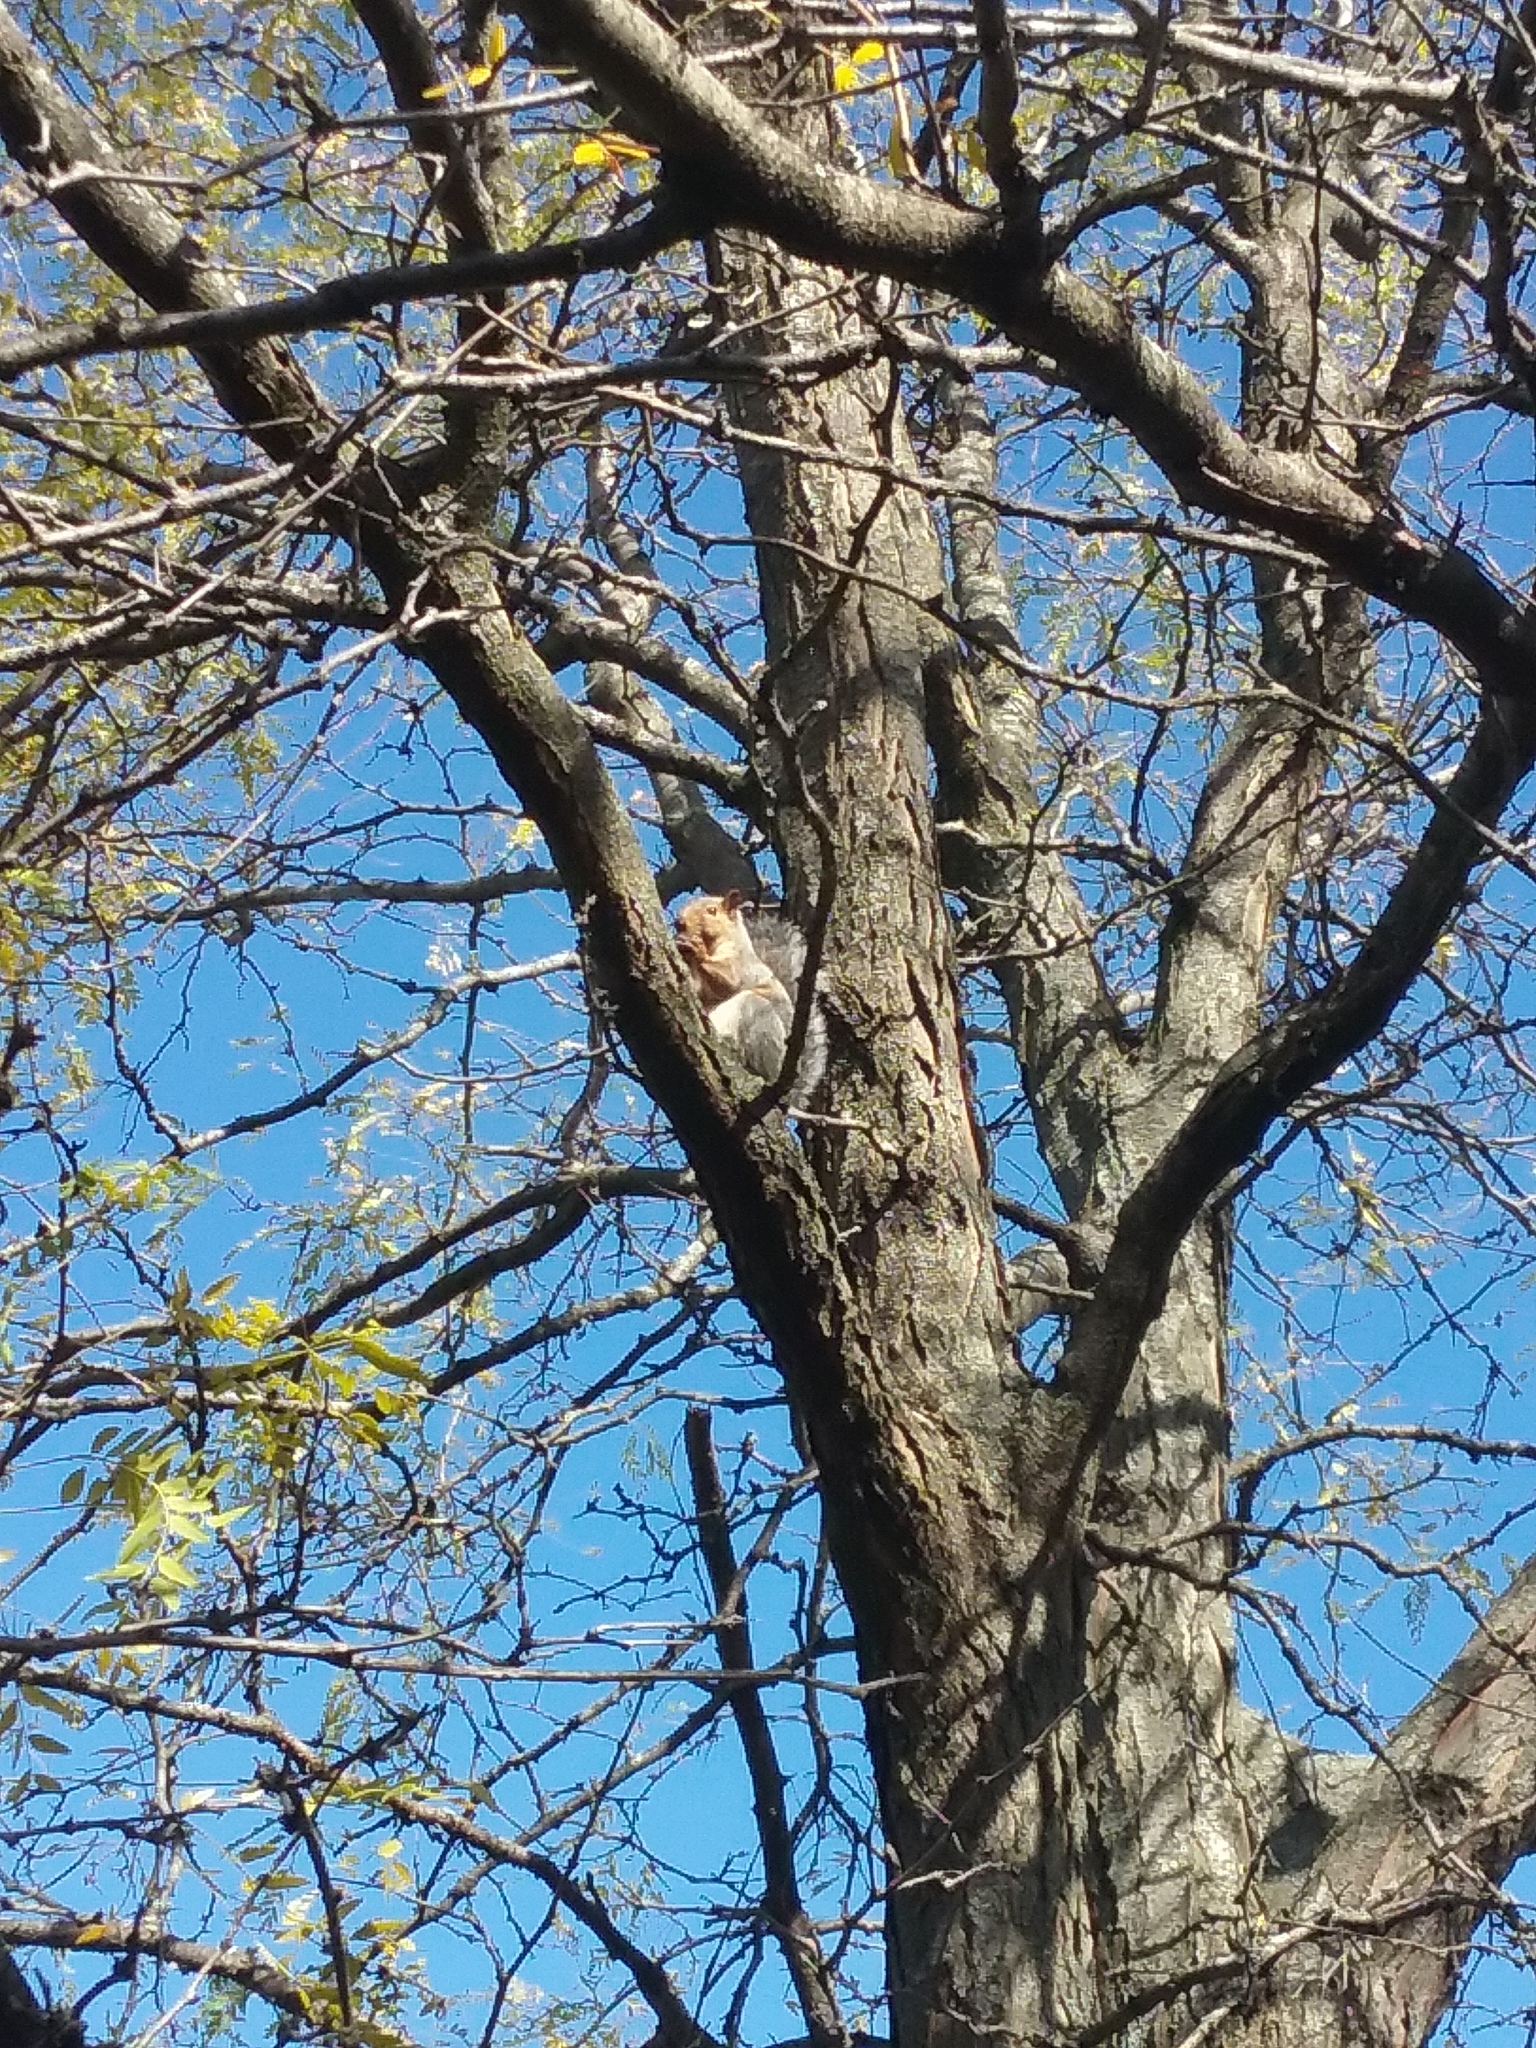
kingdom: Animalia
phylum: Chordata
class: Mammalia
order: Rodentia
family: Sciuridae
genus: Sciurus
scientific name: Sciurus carolinensis
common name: Eastern gray squirrel
